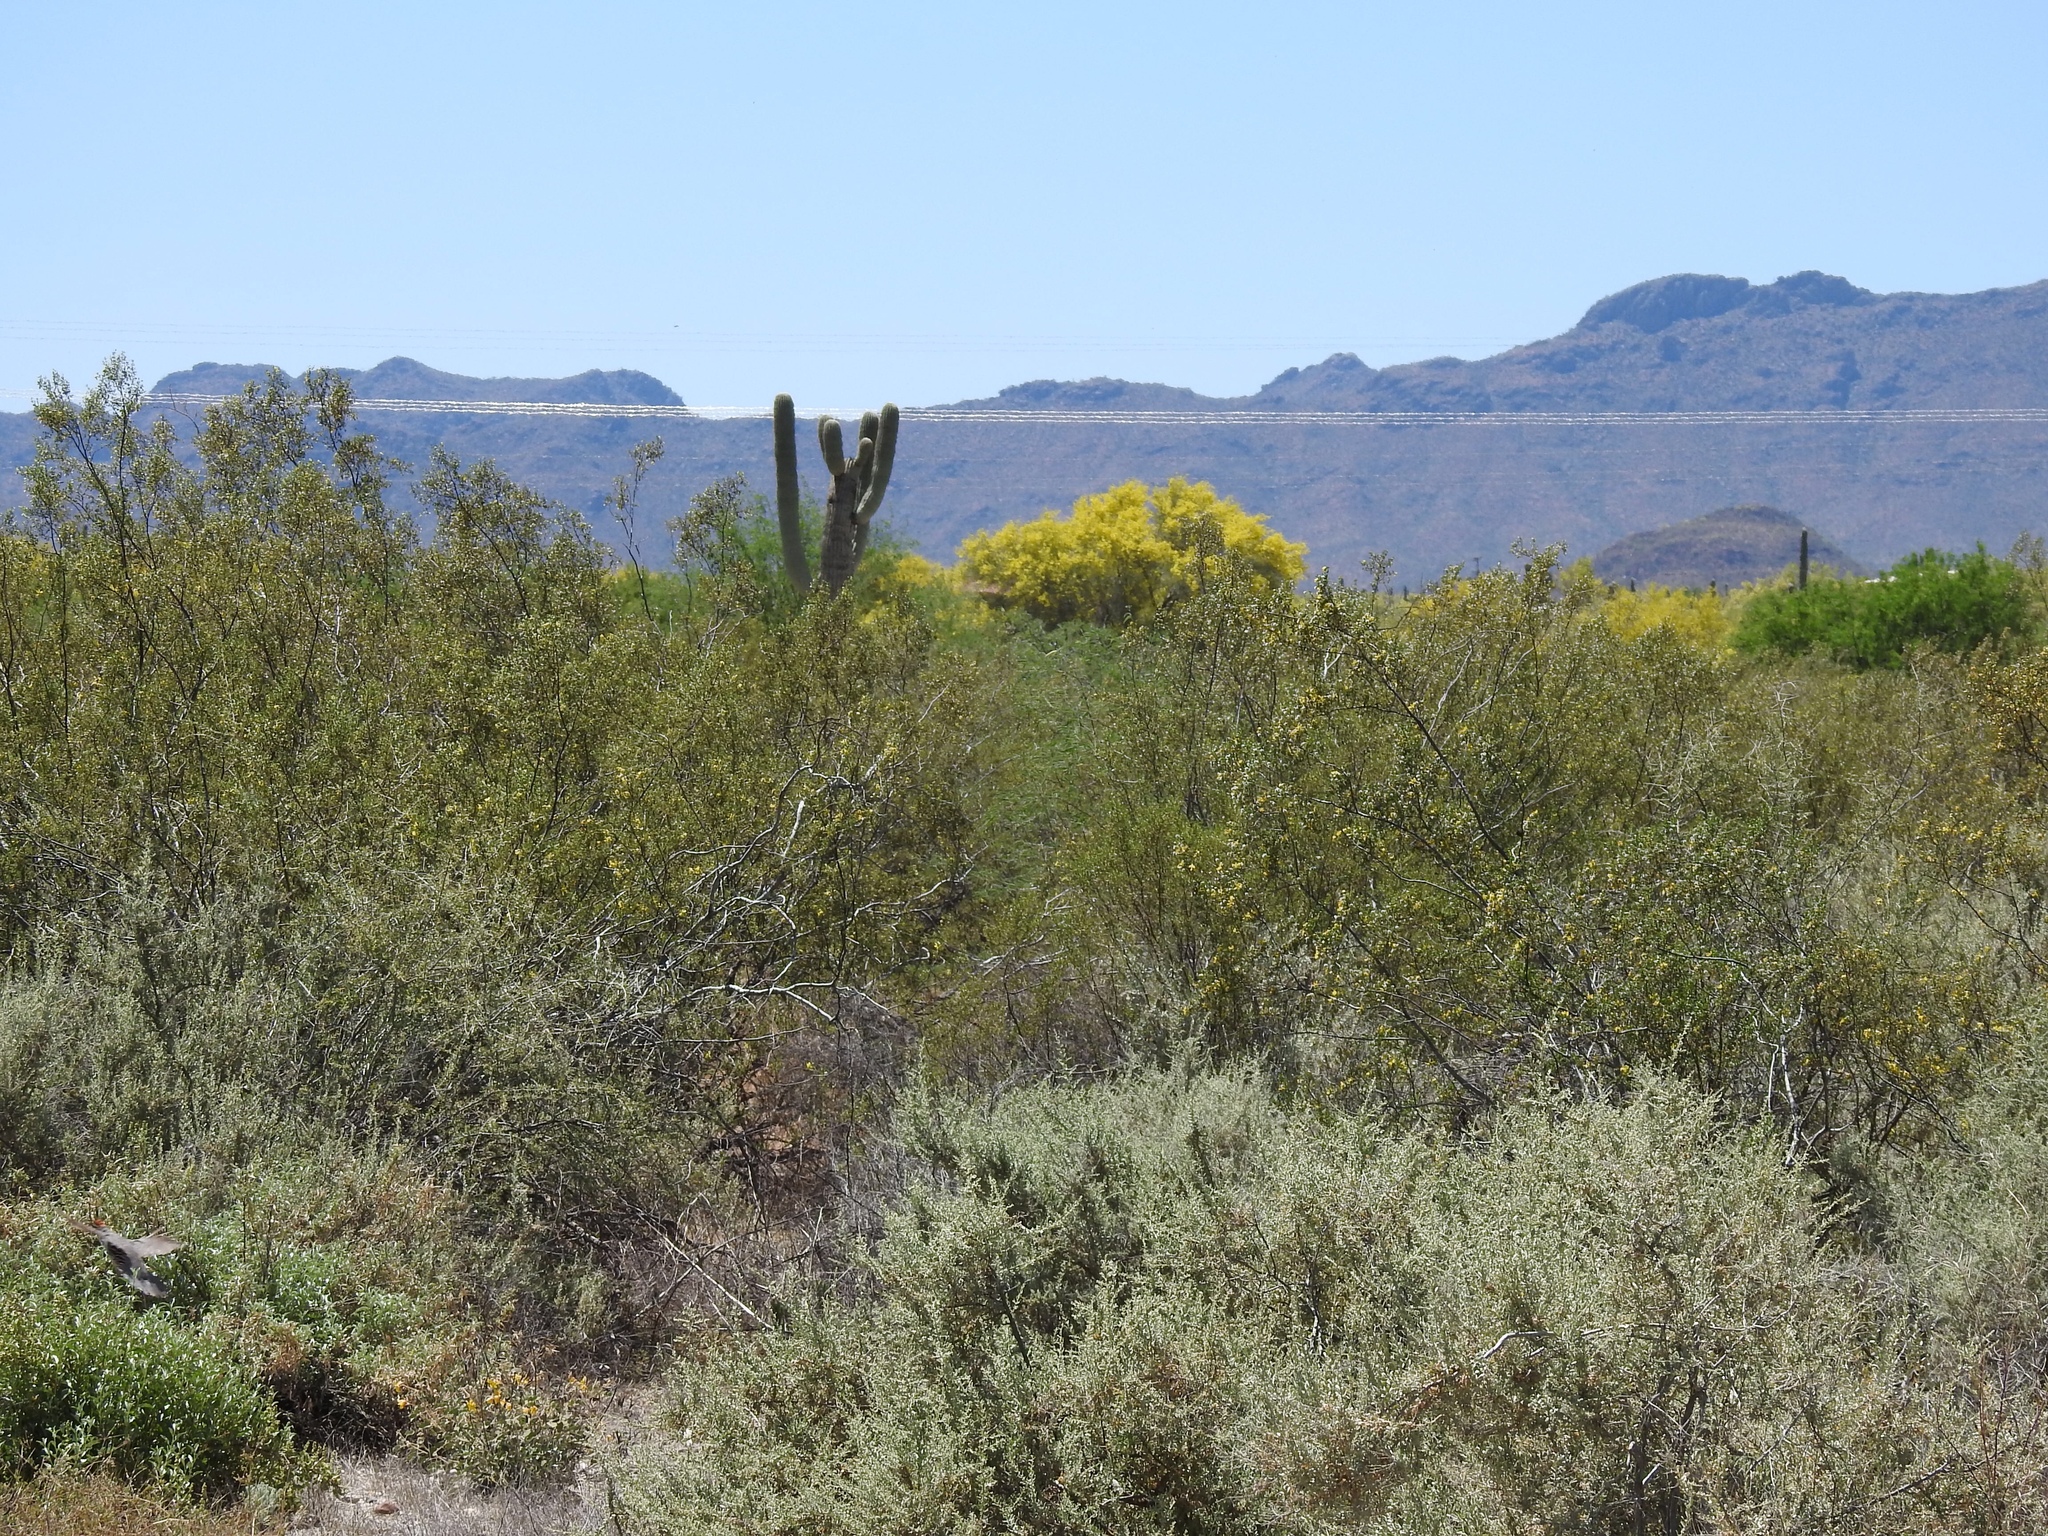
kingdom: Plantae
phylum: Tracheophyta
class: Magnoliopsida
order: Zygophyllales
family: Zygophyllaceae
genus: Larrea
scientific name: Larrea tridentata
